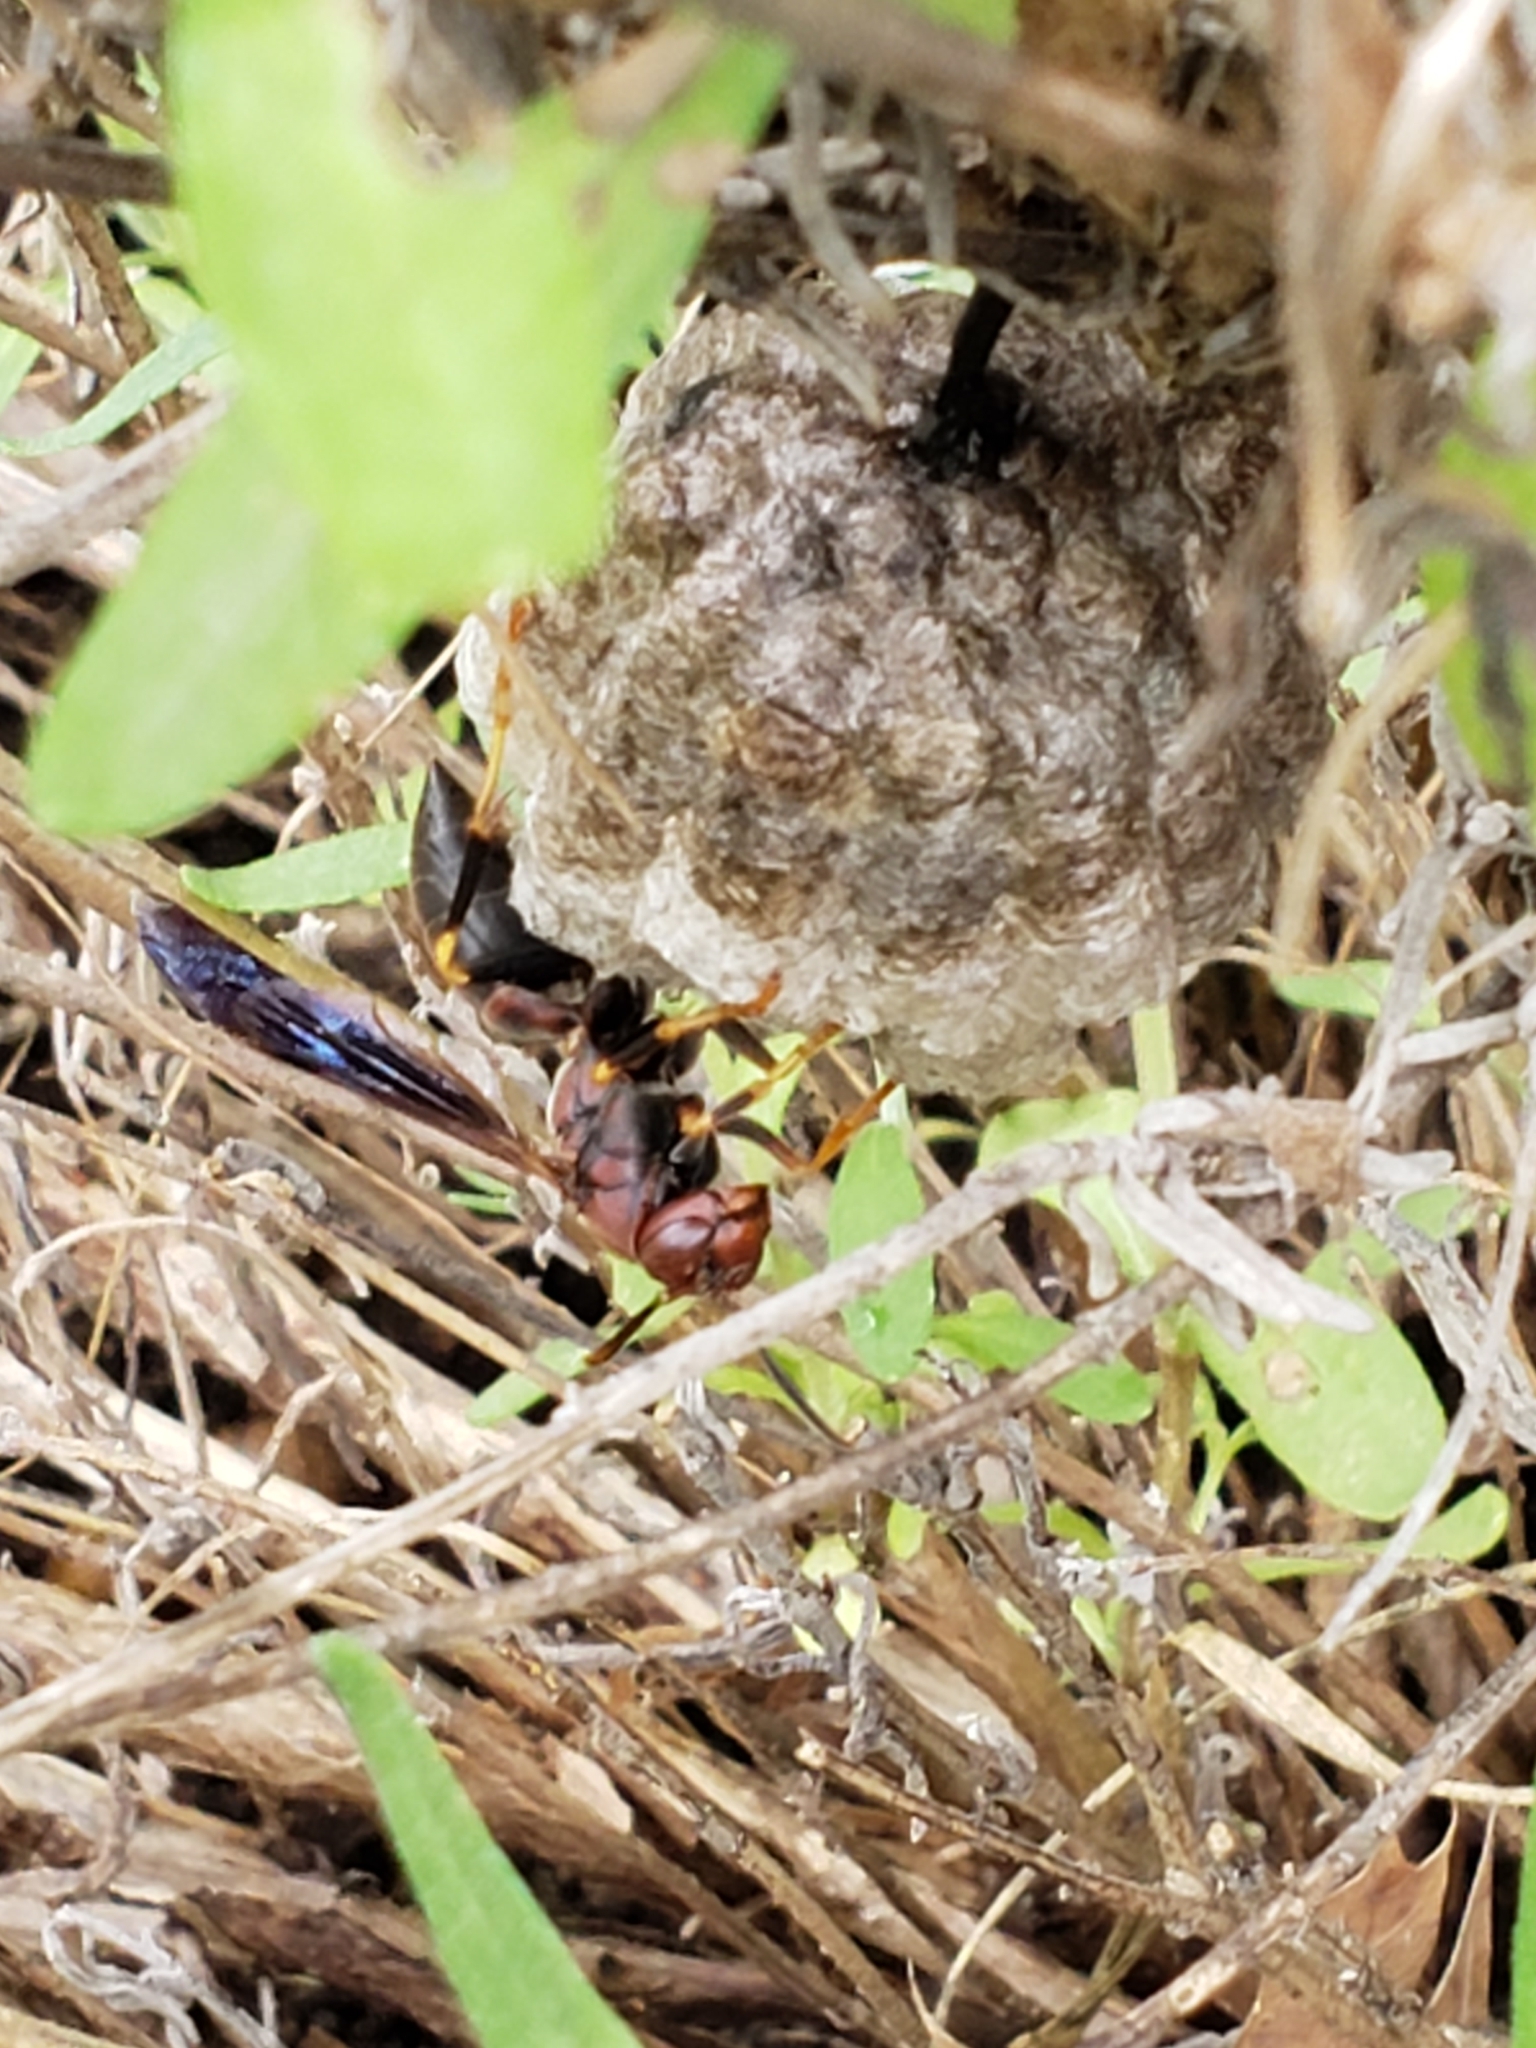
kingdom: Animalia
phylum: Arthropoda
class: Insecta
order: Hymenoptera
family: Vespidae
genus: Fuscopolistes
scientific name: Fuscopolistes
